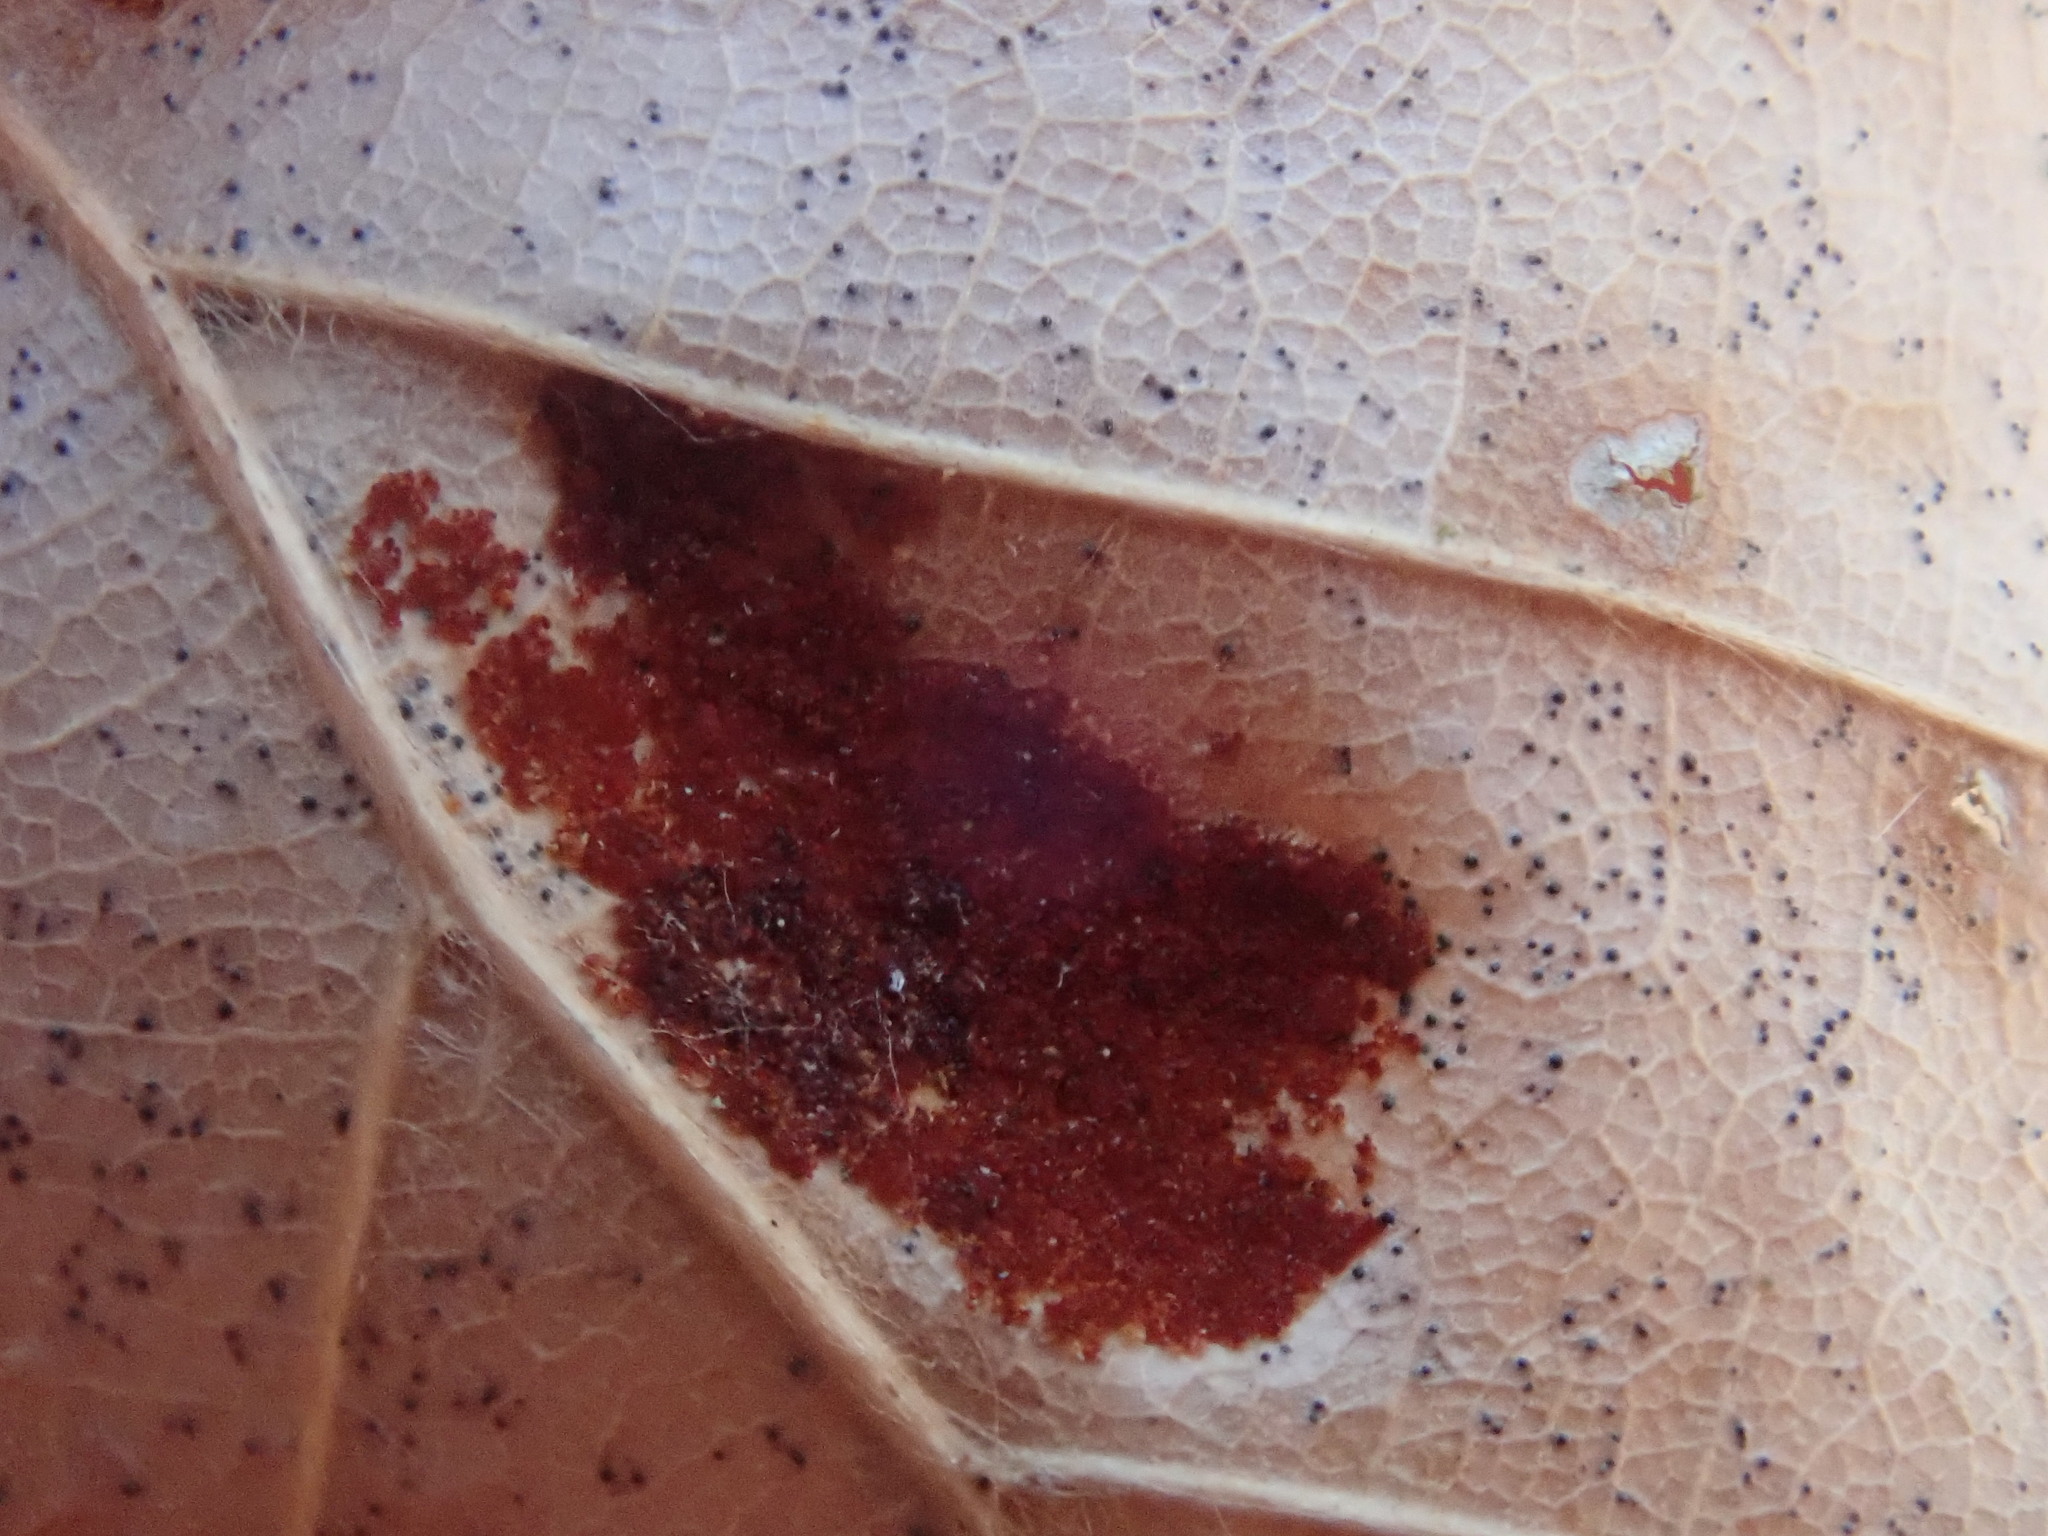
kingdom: Animalia
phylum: Arthropoda
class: Arachnida
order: Trombidiformes
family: Eriophyidae
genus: Acalitus
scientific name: Acalitus
